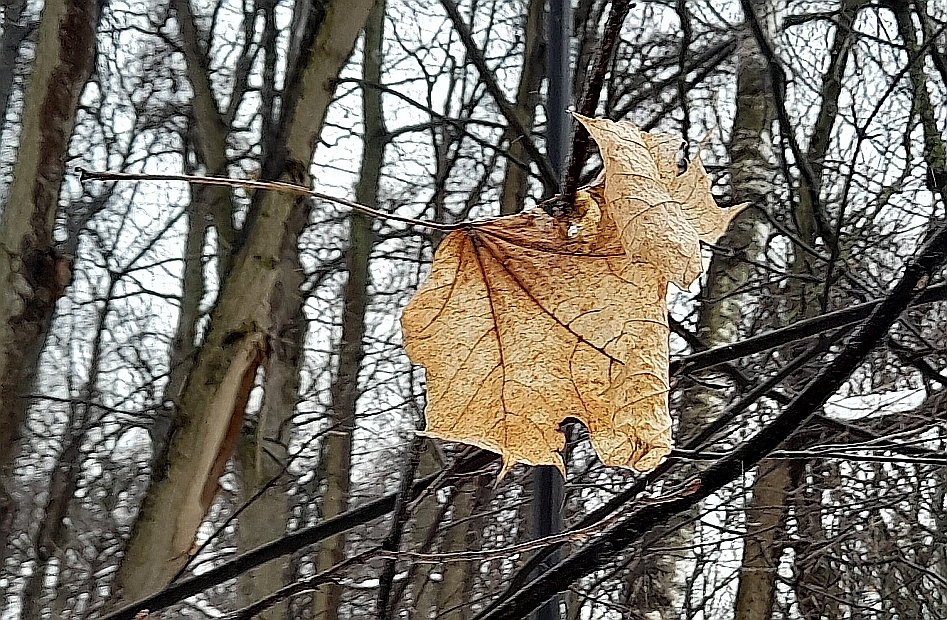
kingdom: Plantae
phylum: Tracheophyta
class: Magnoliopsida
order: Sapindales
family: Sapindaceae
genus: Acer
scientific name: Acer platanoides
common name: Norway maple
